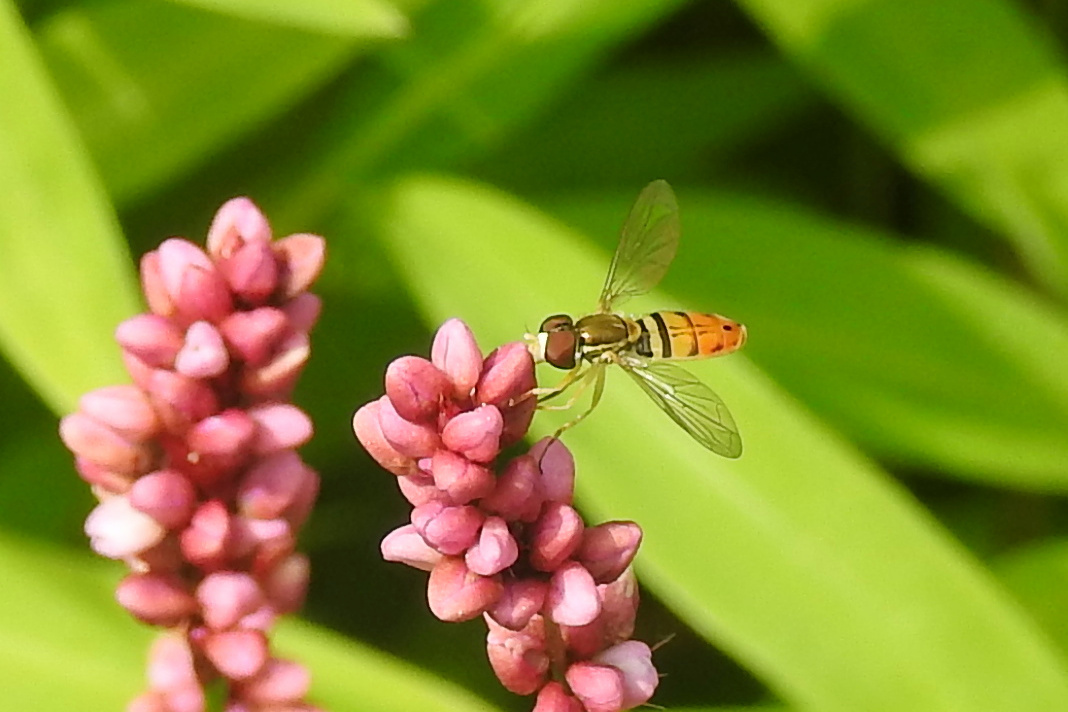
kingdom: Animalia
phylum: Arthropoda
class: Insecta
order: Diptera
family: Syrphidae
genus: Toxomerus
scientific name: Toxomerus marginatus
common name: Syrphid fly
